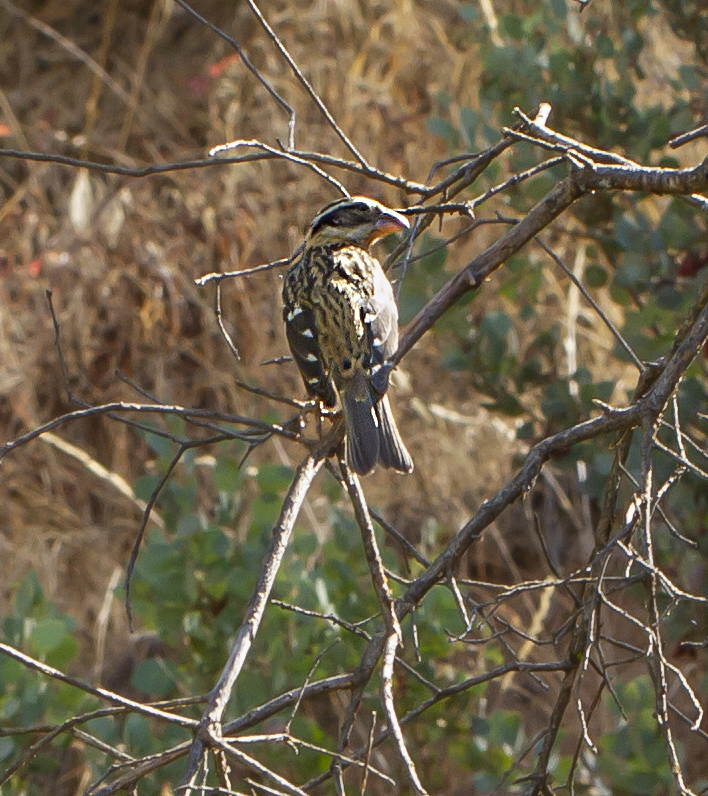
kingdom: Animalia
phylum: Chordata
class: Aves
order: Passeriformes
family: Cardinalidae
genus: Pheucticus
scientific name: Pheucticus melanocephalus
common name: Black-headed grosbeak
